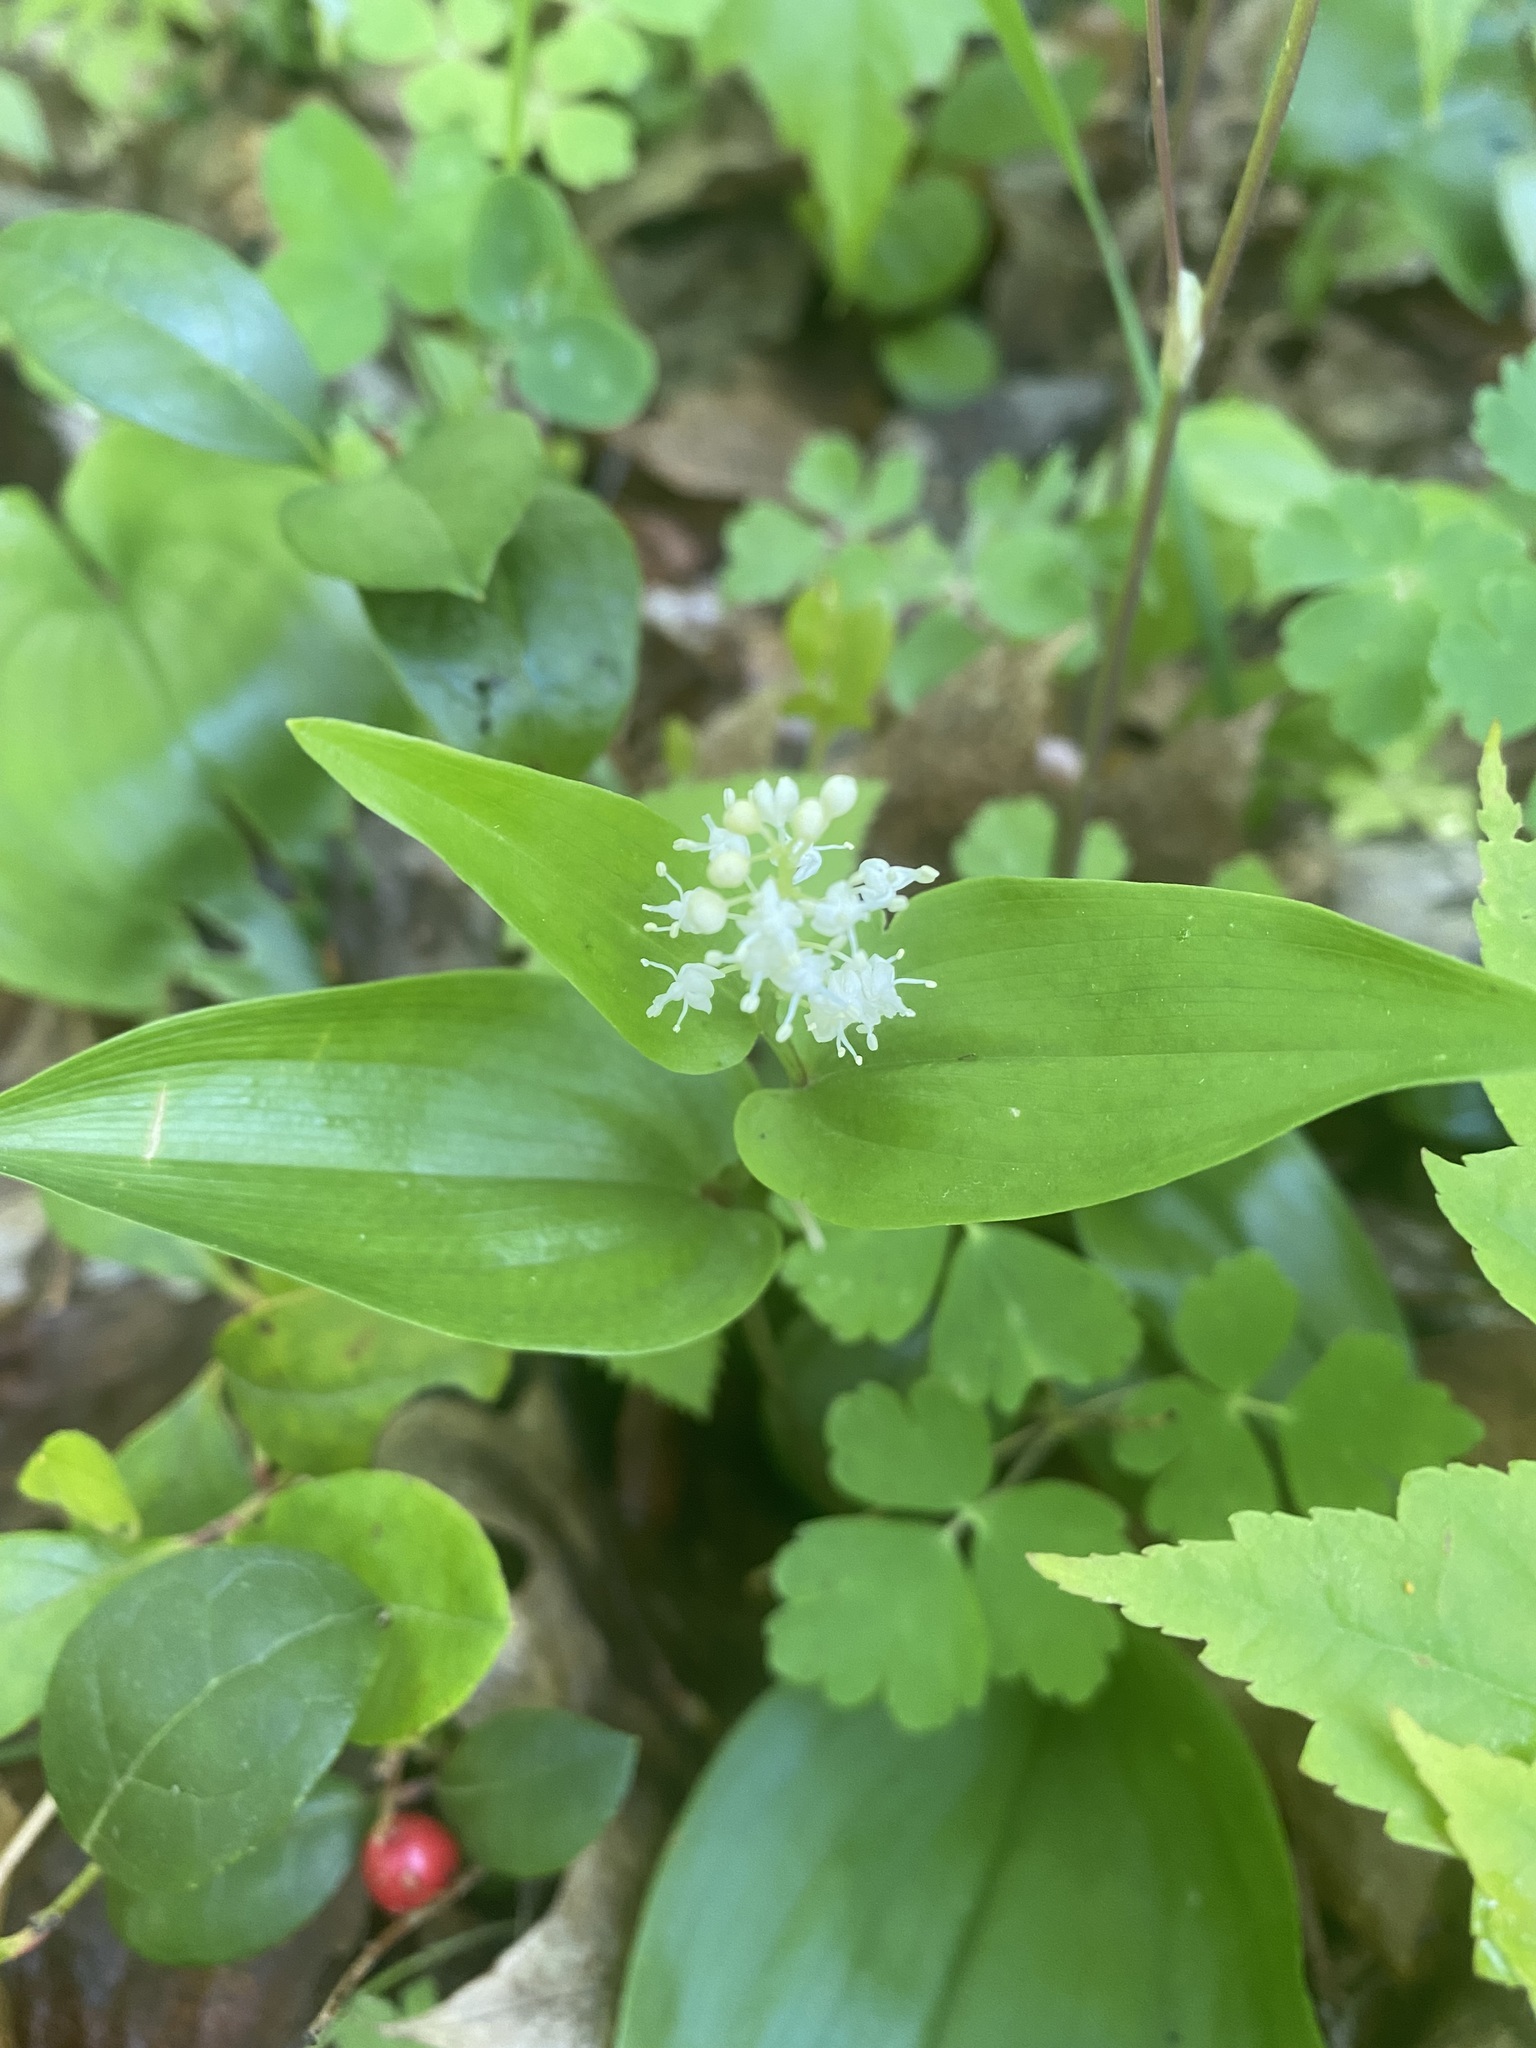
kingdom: Plantae
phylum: Tracheophyta
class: Liliopsida
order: Asparagales
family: Asparagaceae
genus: Maianthemum
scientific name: Maianthemum canadense
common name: False lily-of-the-valley
